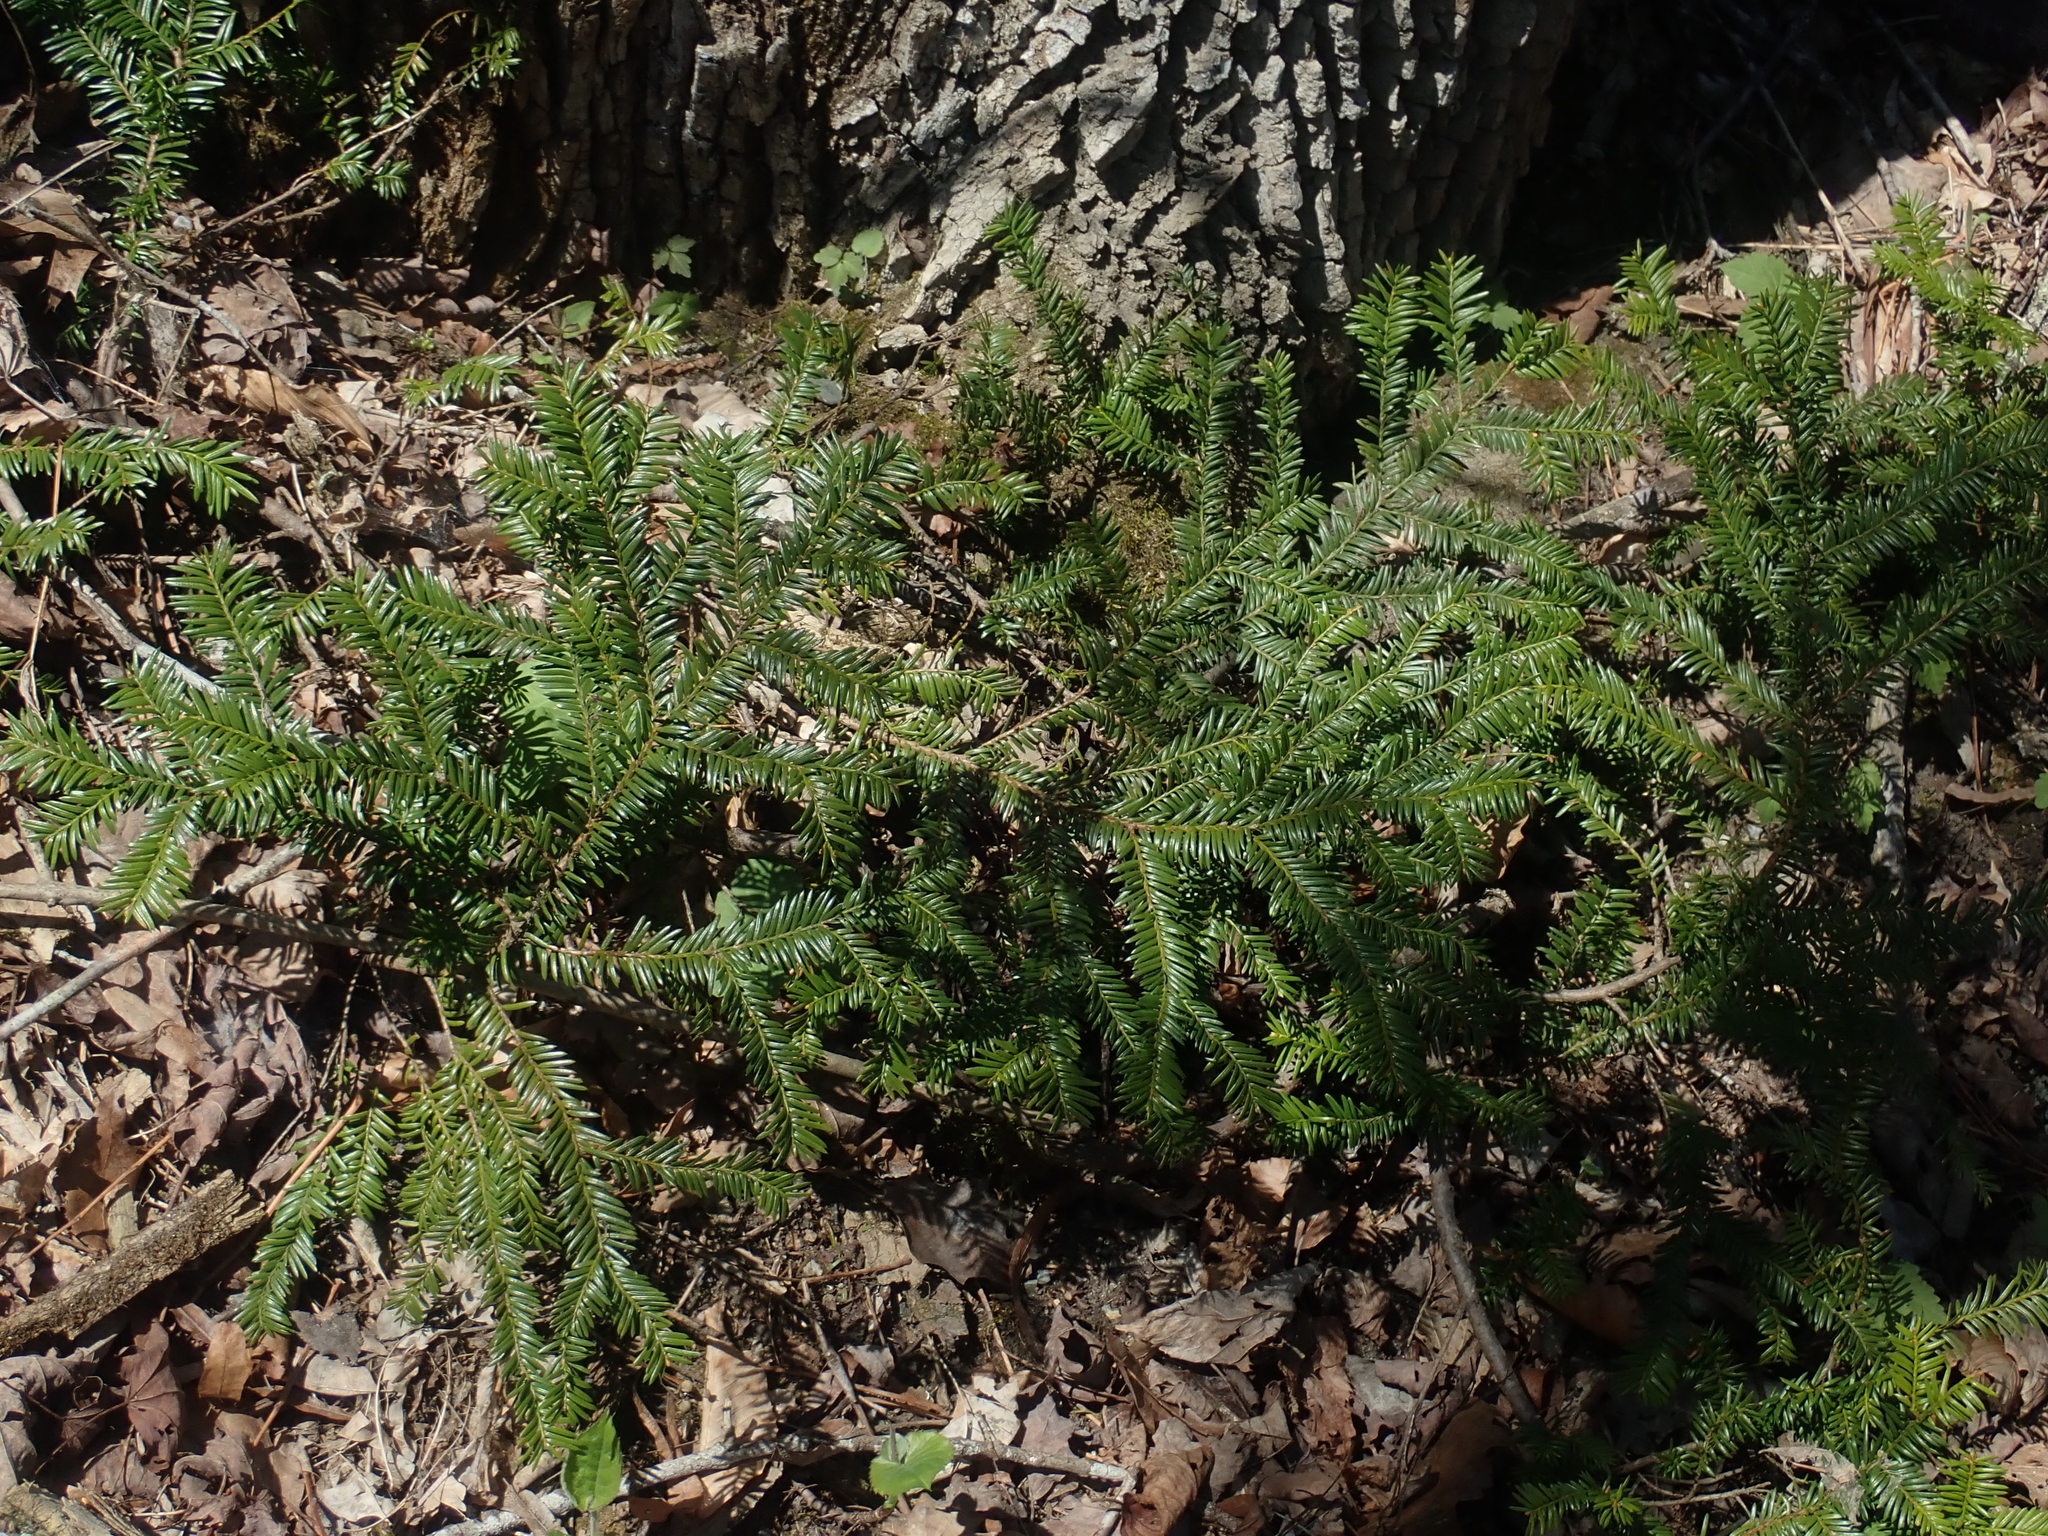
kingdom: Plantae
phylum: Tracheophyta
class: Pinopsida
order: Pinales
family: Taxaceae
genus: Taxus
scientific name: Taxus canadensis
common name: American yew
